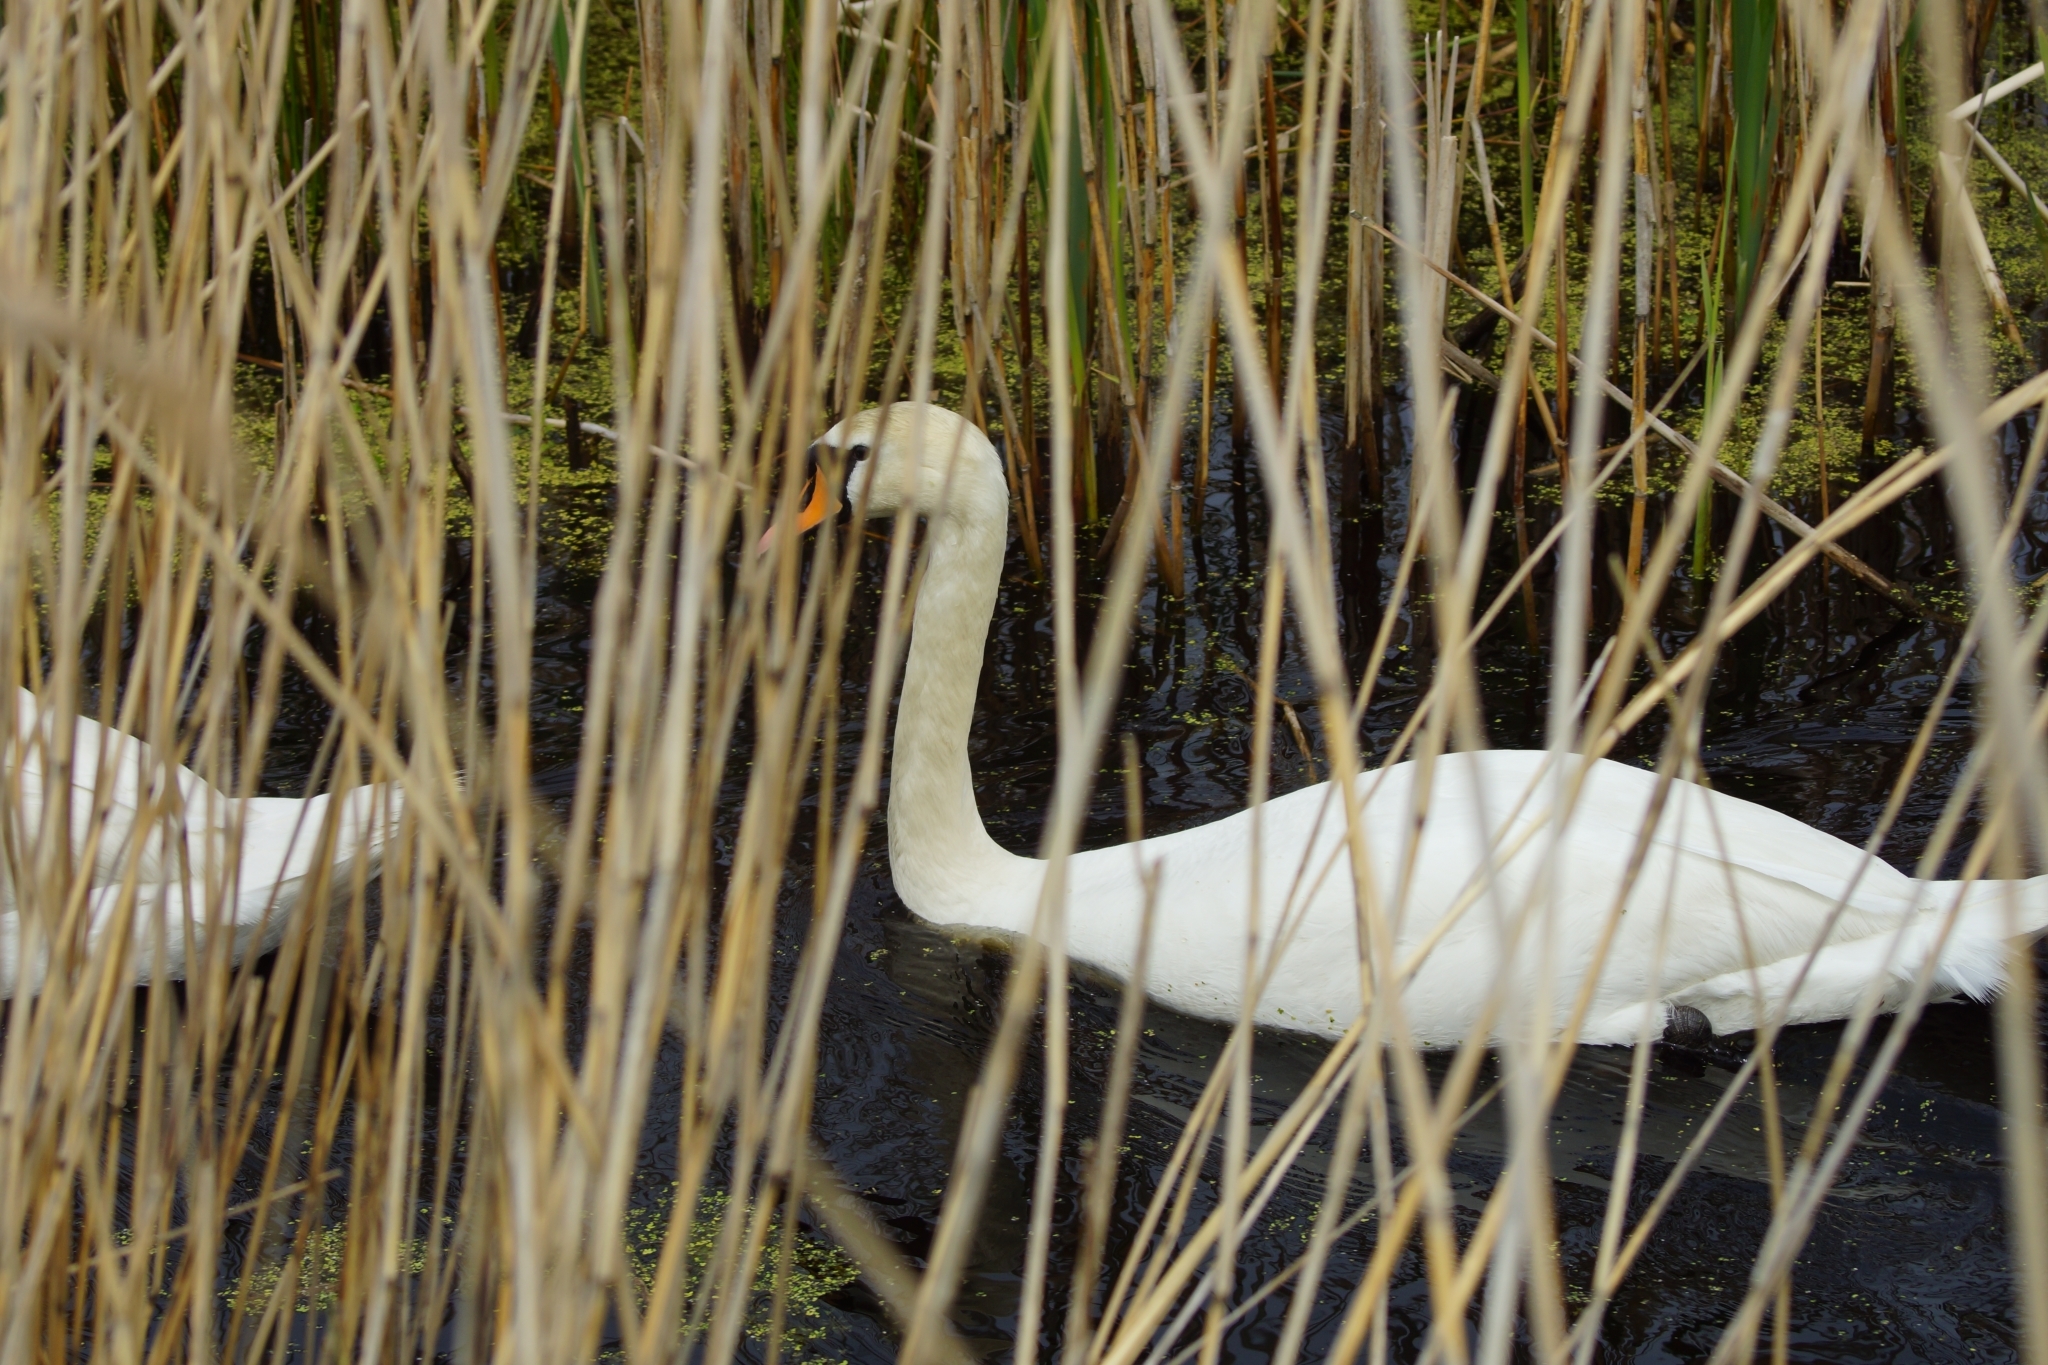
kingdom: Animalia
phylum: Chordata
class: Aves
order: Anseriformes
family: Anatidae
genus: Cygnus
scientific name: Cygnus olor
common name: Mute swan
